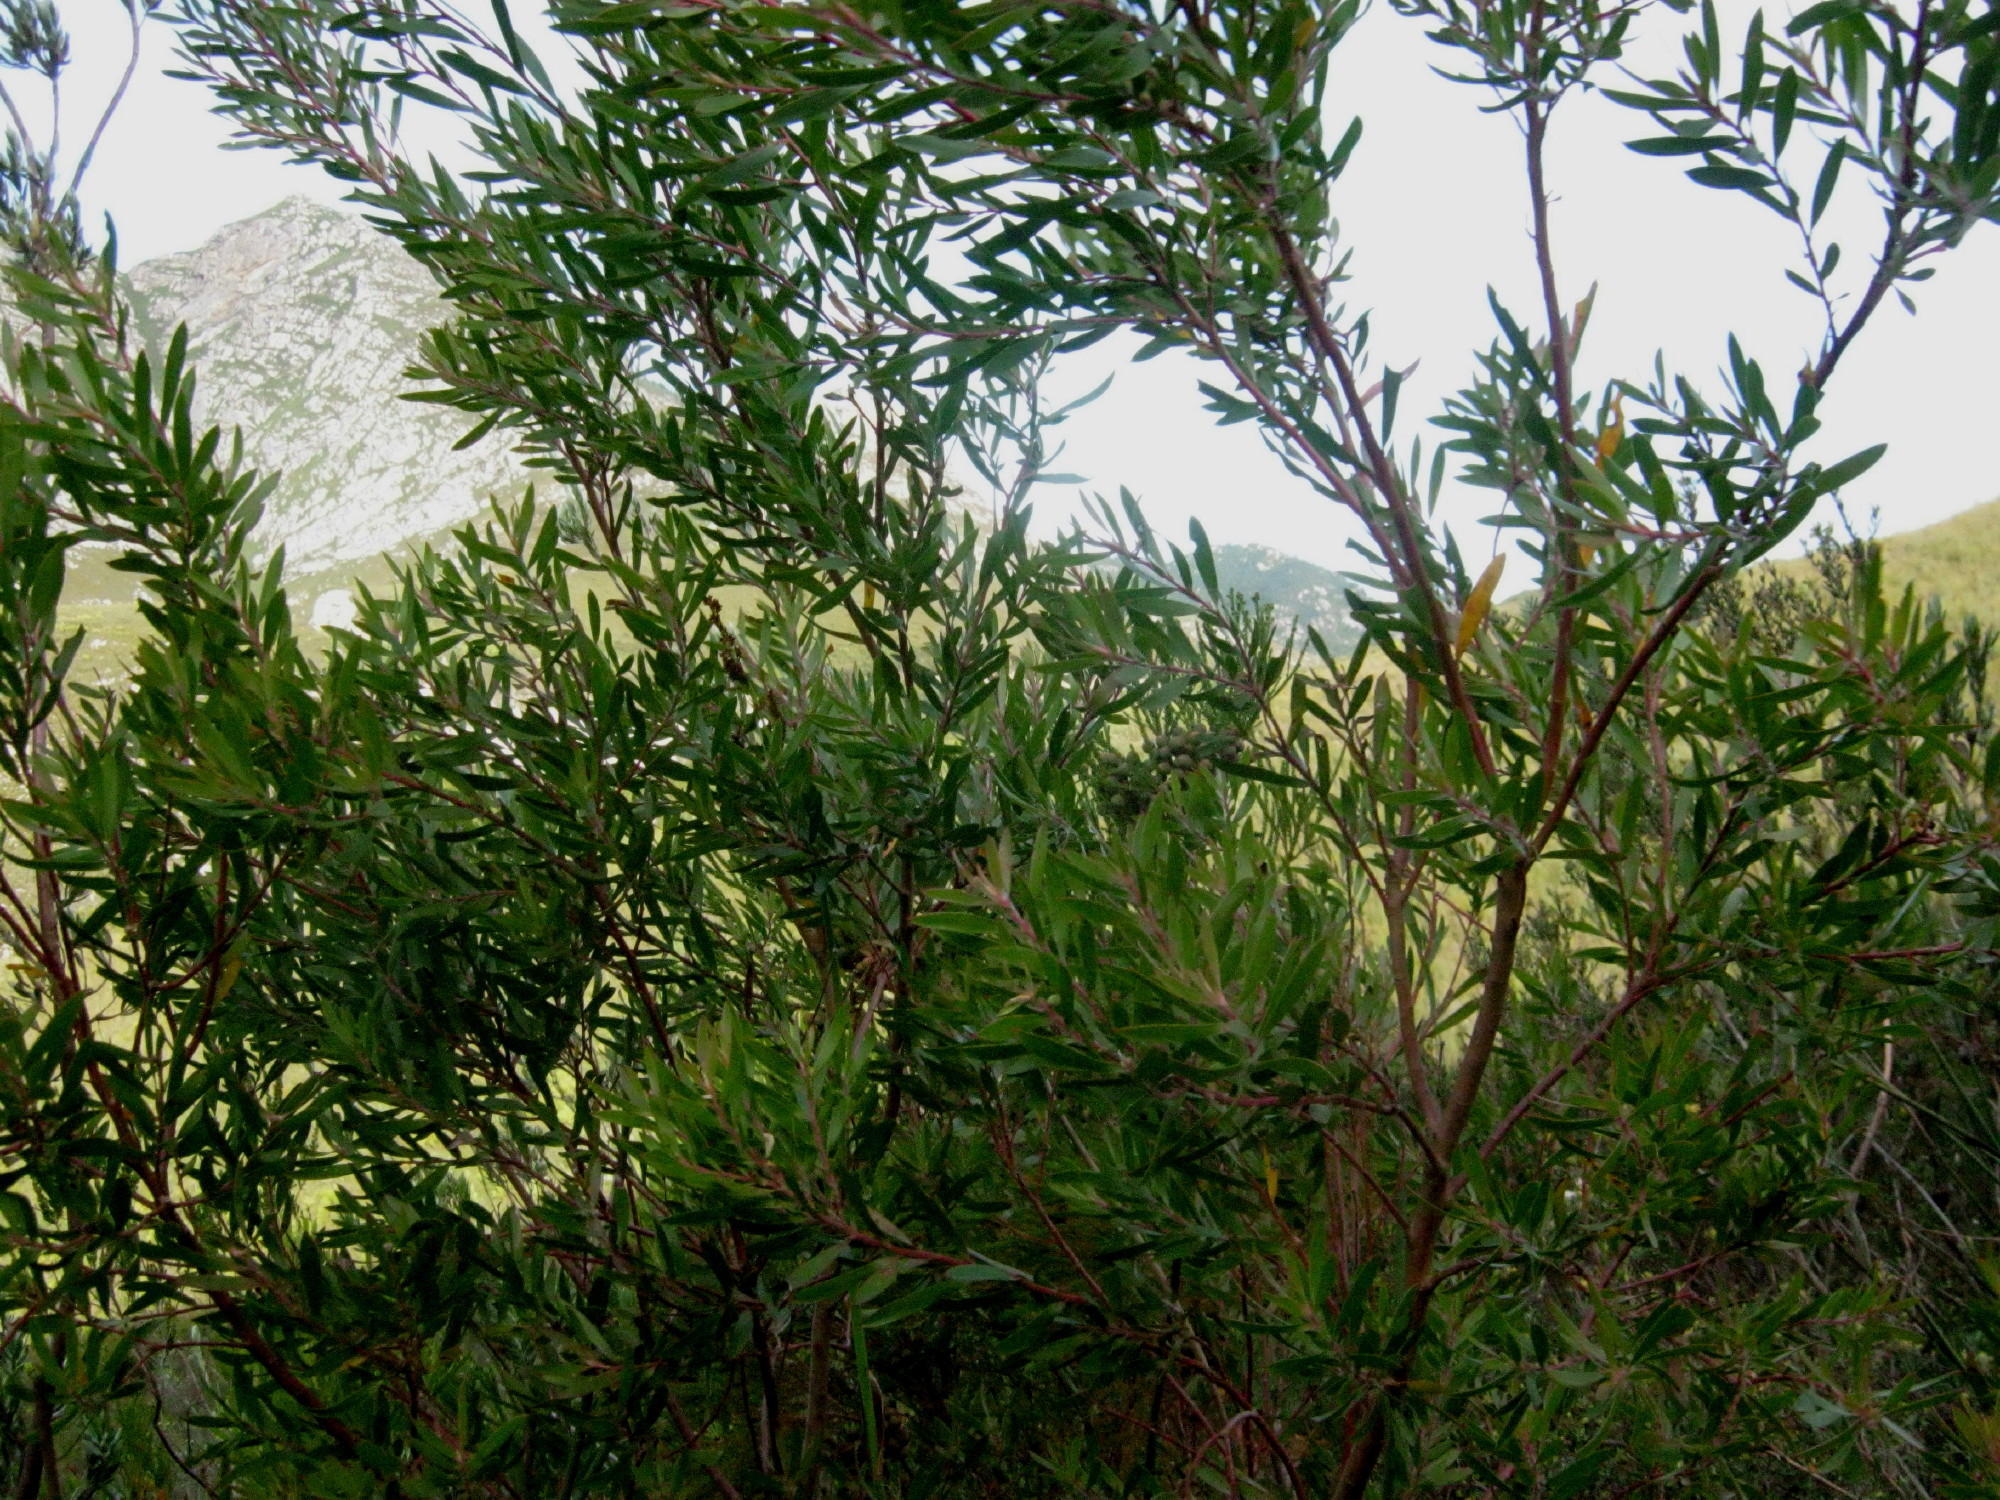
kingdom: Plantae
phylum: Tracheophyta
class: Magnoliopsida
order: Proteales
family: Proteaceae
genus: Leucadendron
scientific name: Leucadendron conicum
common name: Garden route conebush
